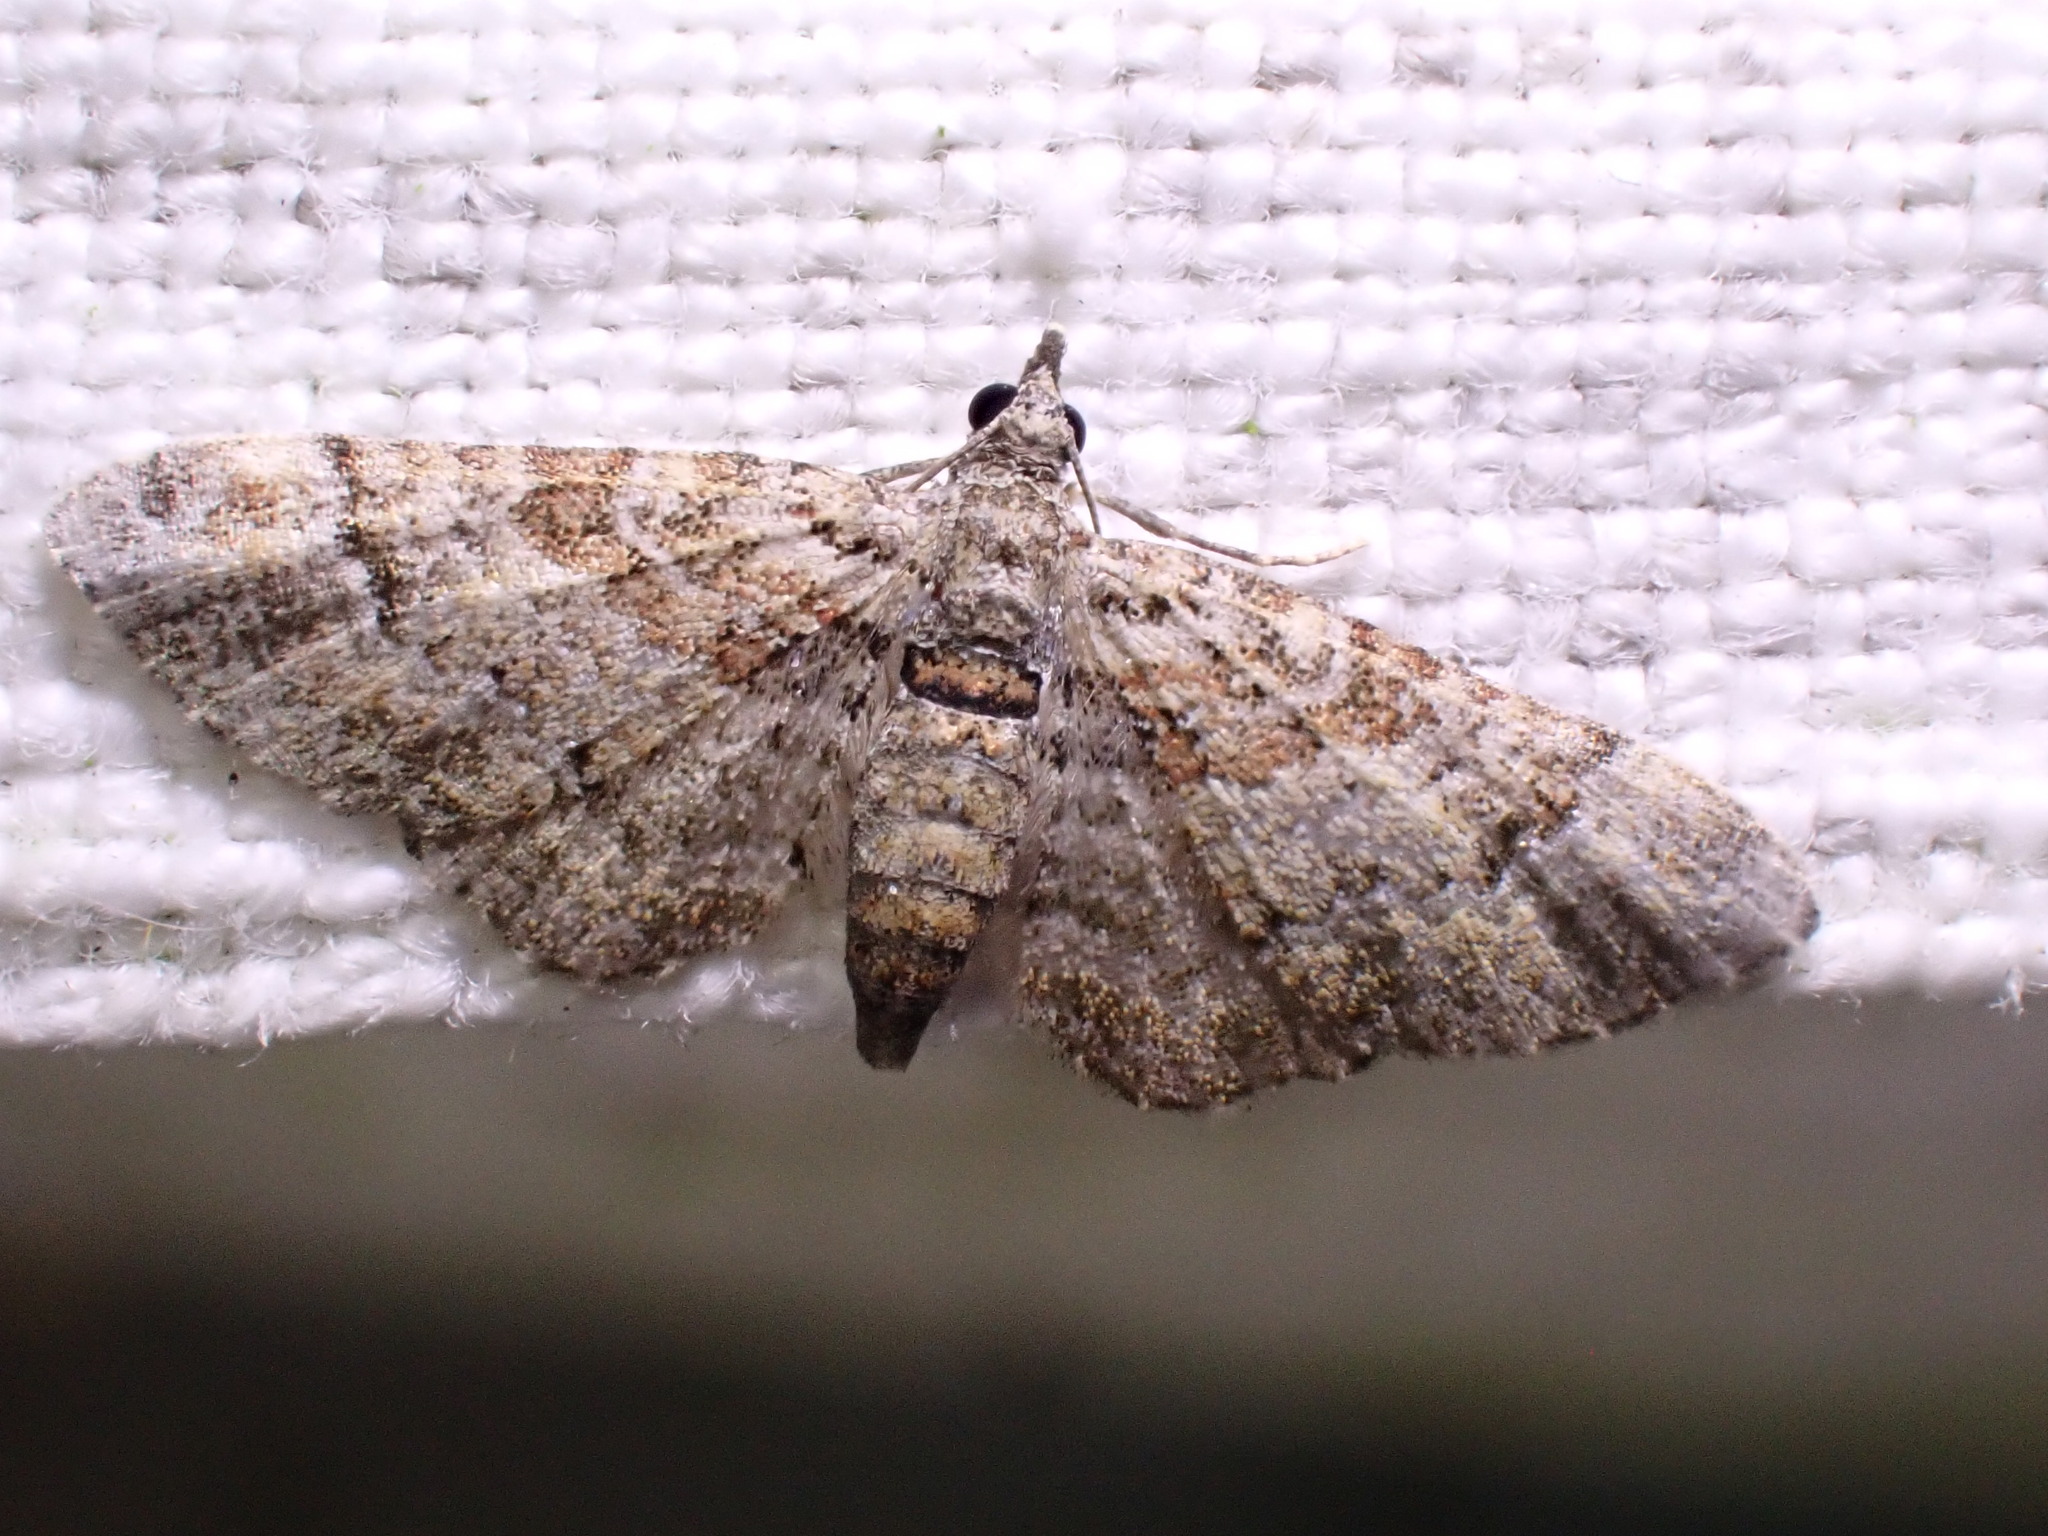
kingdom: Animalia
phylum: Arthropoda
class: Insecta
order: Lepidoptera
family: Geometridae
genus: Gymnoscelis
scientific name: Gymnoscelis rufifasciata
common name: Double-striped pug
